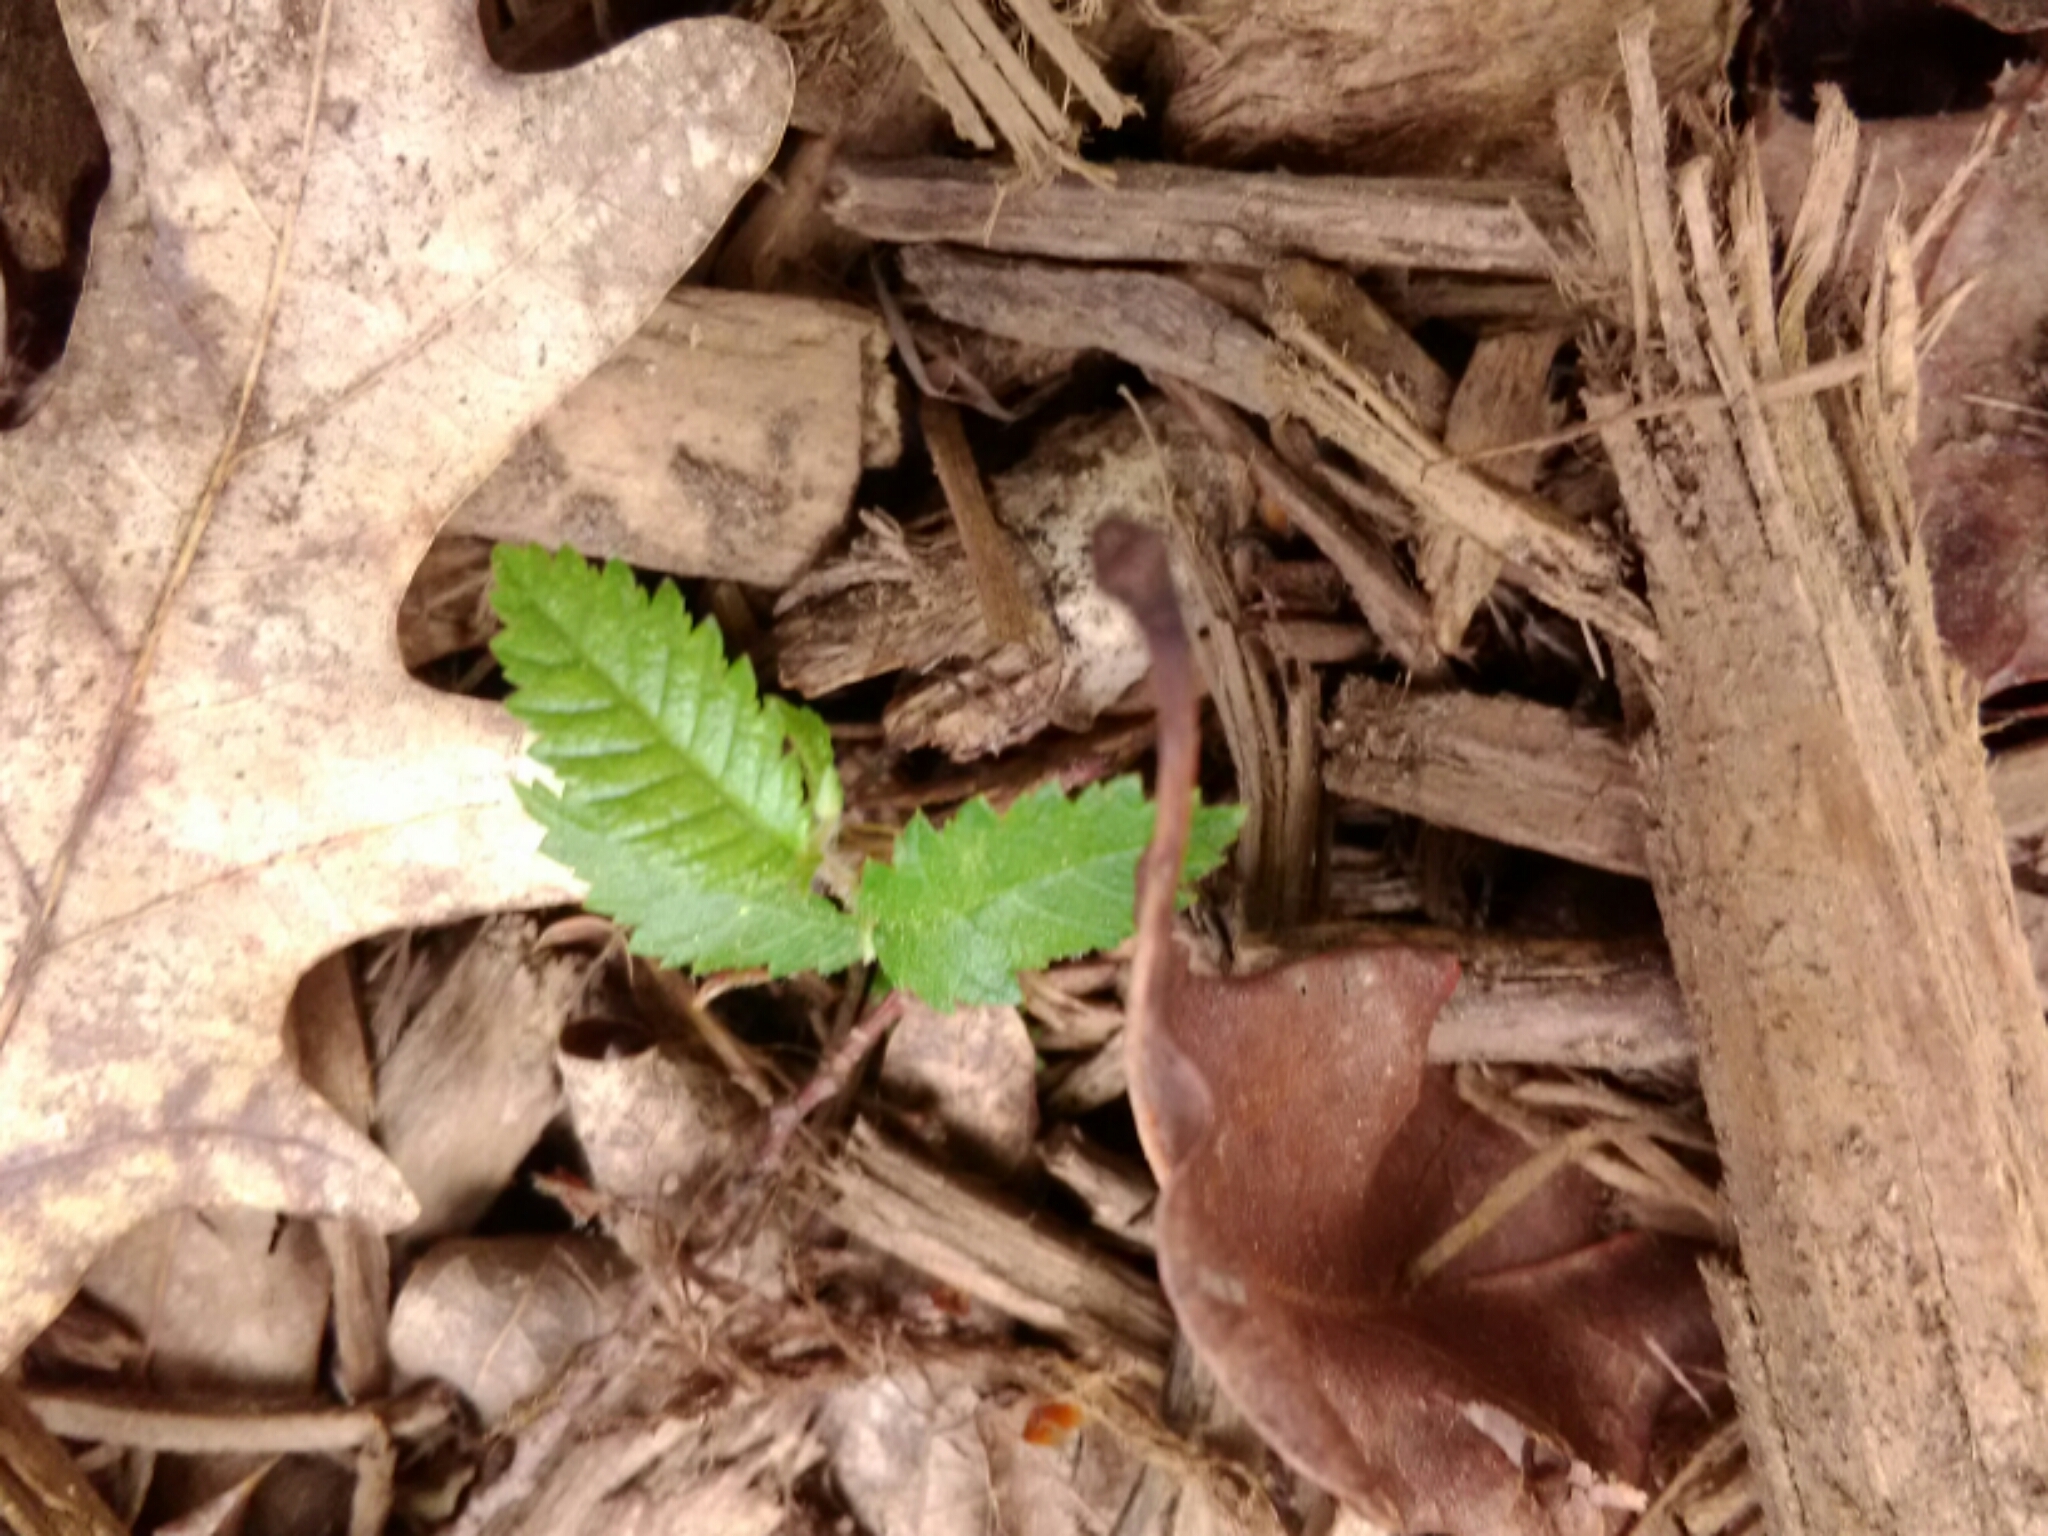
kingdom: Plantae
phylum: Tracheophyta
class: Magnoliopsida
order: Rosales
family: Ulmaceae
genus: Ulmus
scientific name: Ulmus alata
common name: Winged elm
